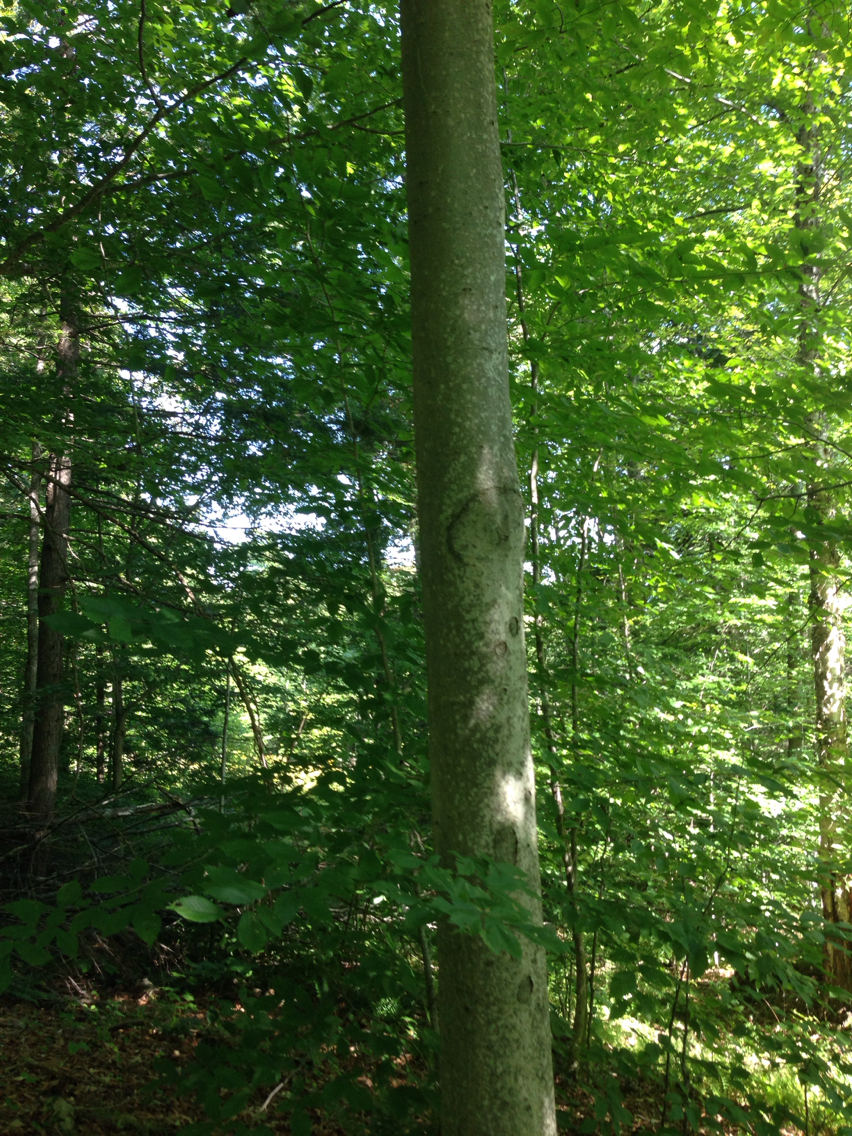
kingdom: Plantae
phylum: Tracheophyta
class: Magnoliopsida
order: Fagales
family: Fagaceae
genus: Fagus
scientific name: Fagus grandifolia
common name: American beech
